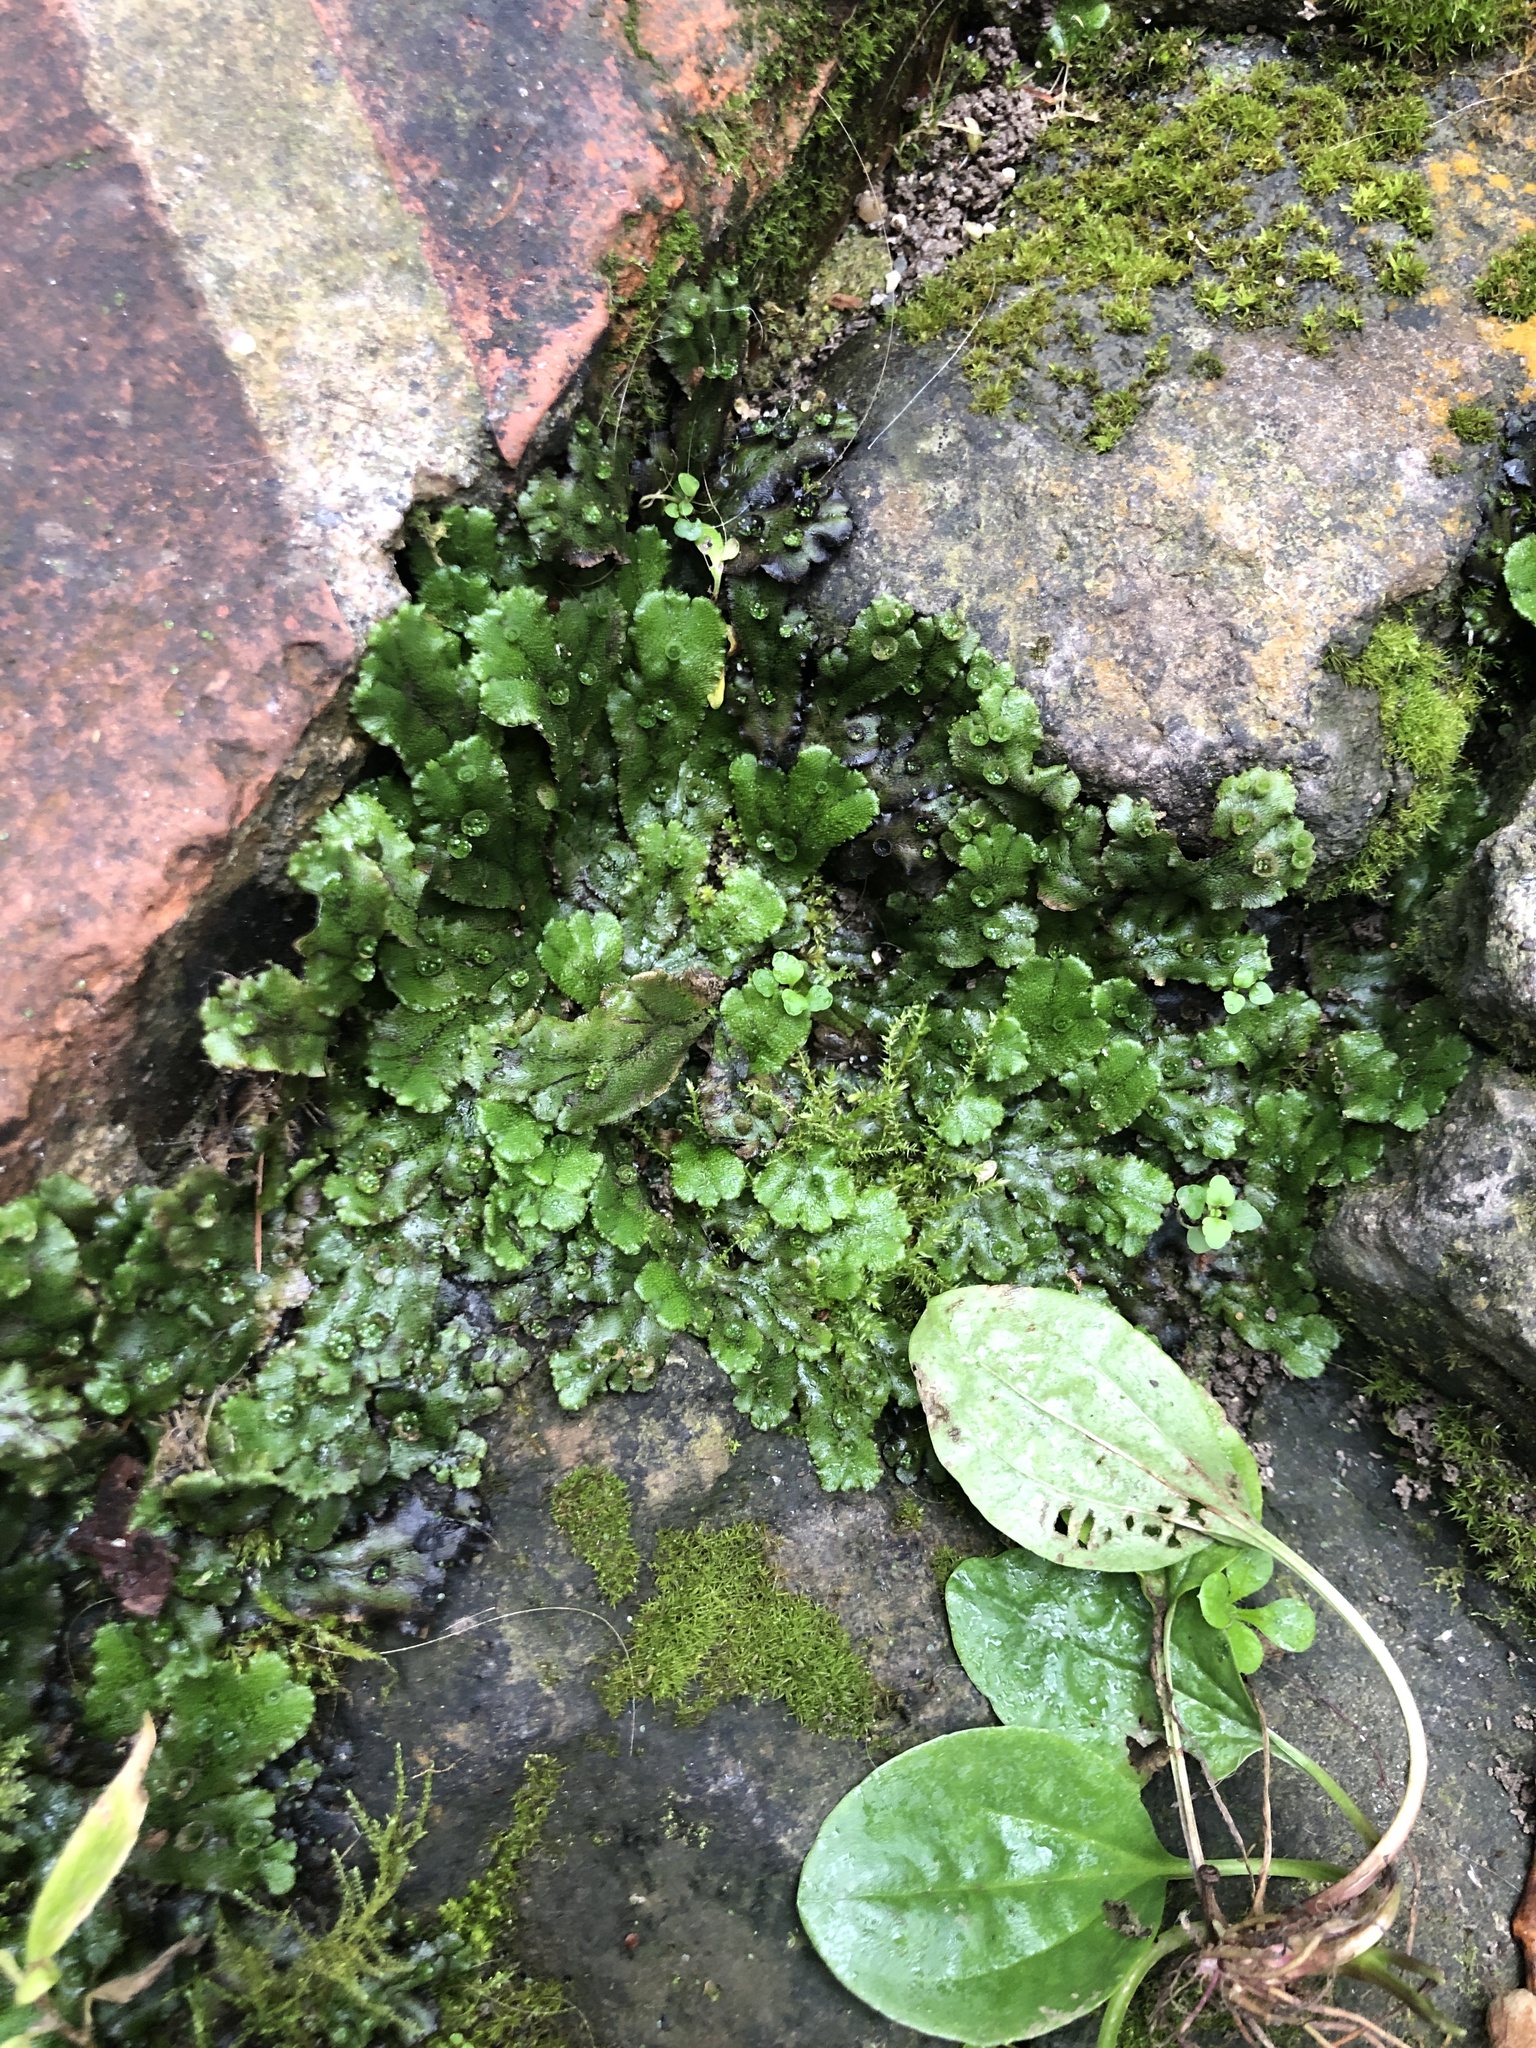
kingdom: Plantae
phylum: Marchantiophyta
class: Marchantiopsida
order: Marchantiales
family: Marchantiaceae
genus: Marchantia
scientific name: Marchantia polymorpha
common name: Common liverwort
